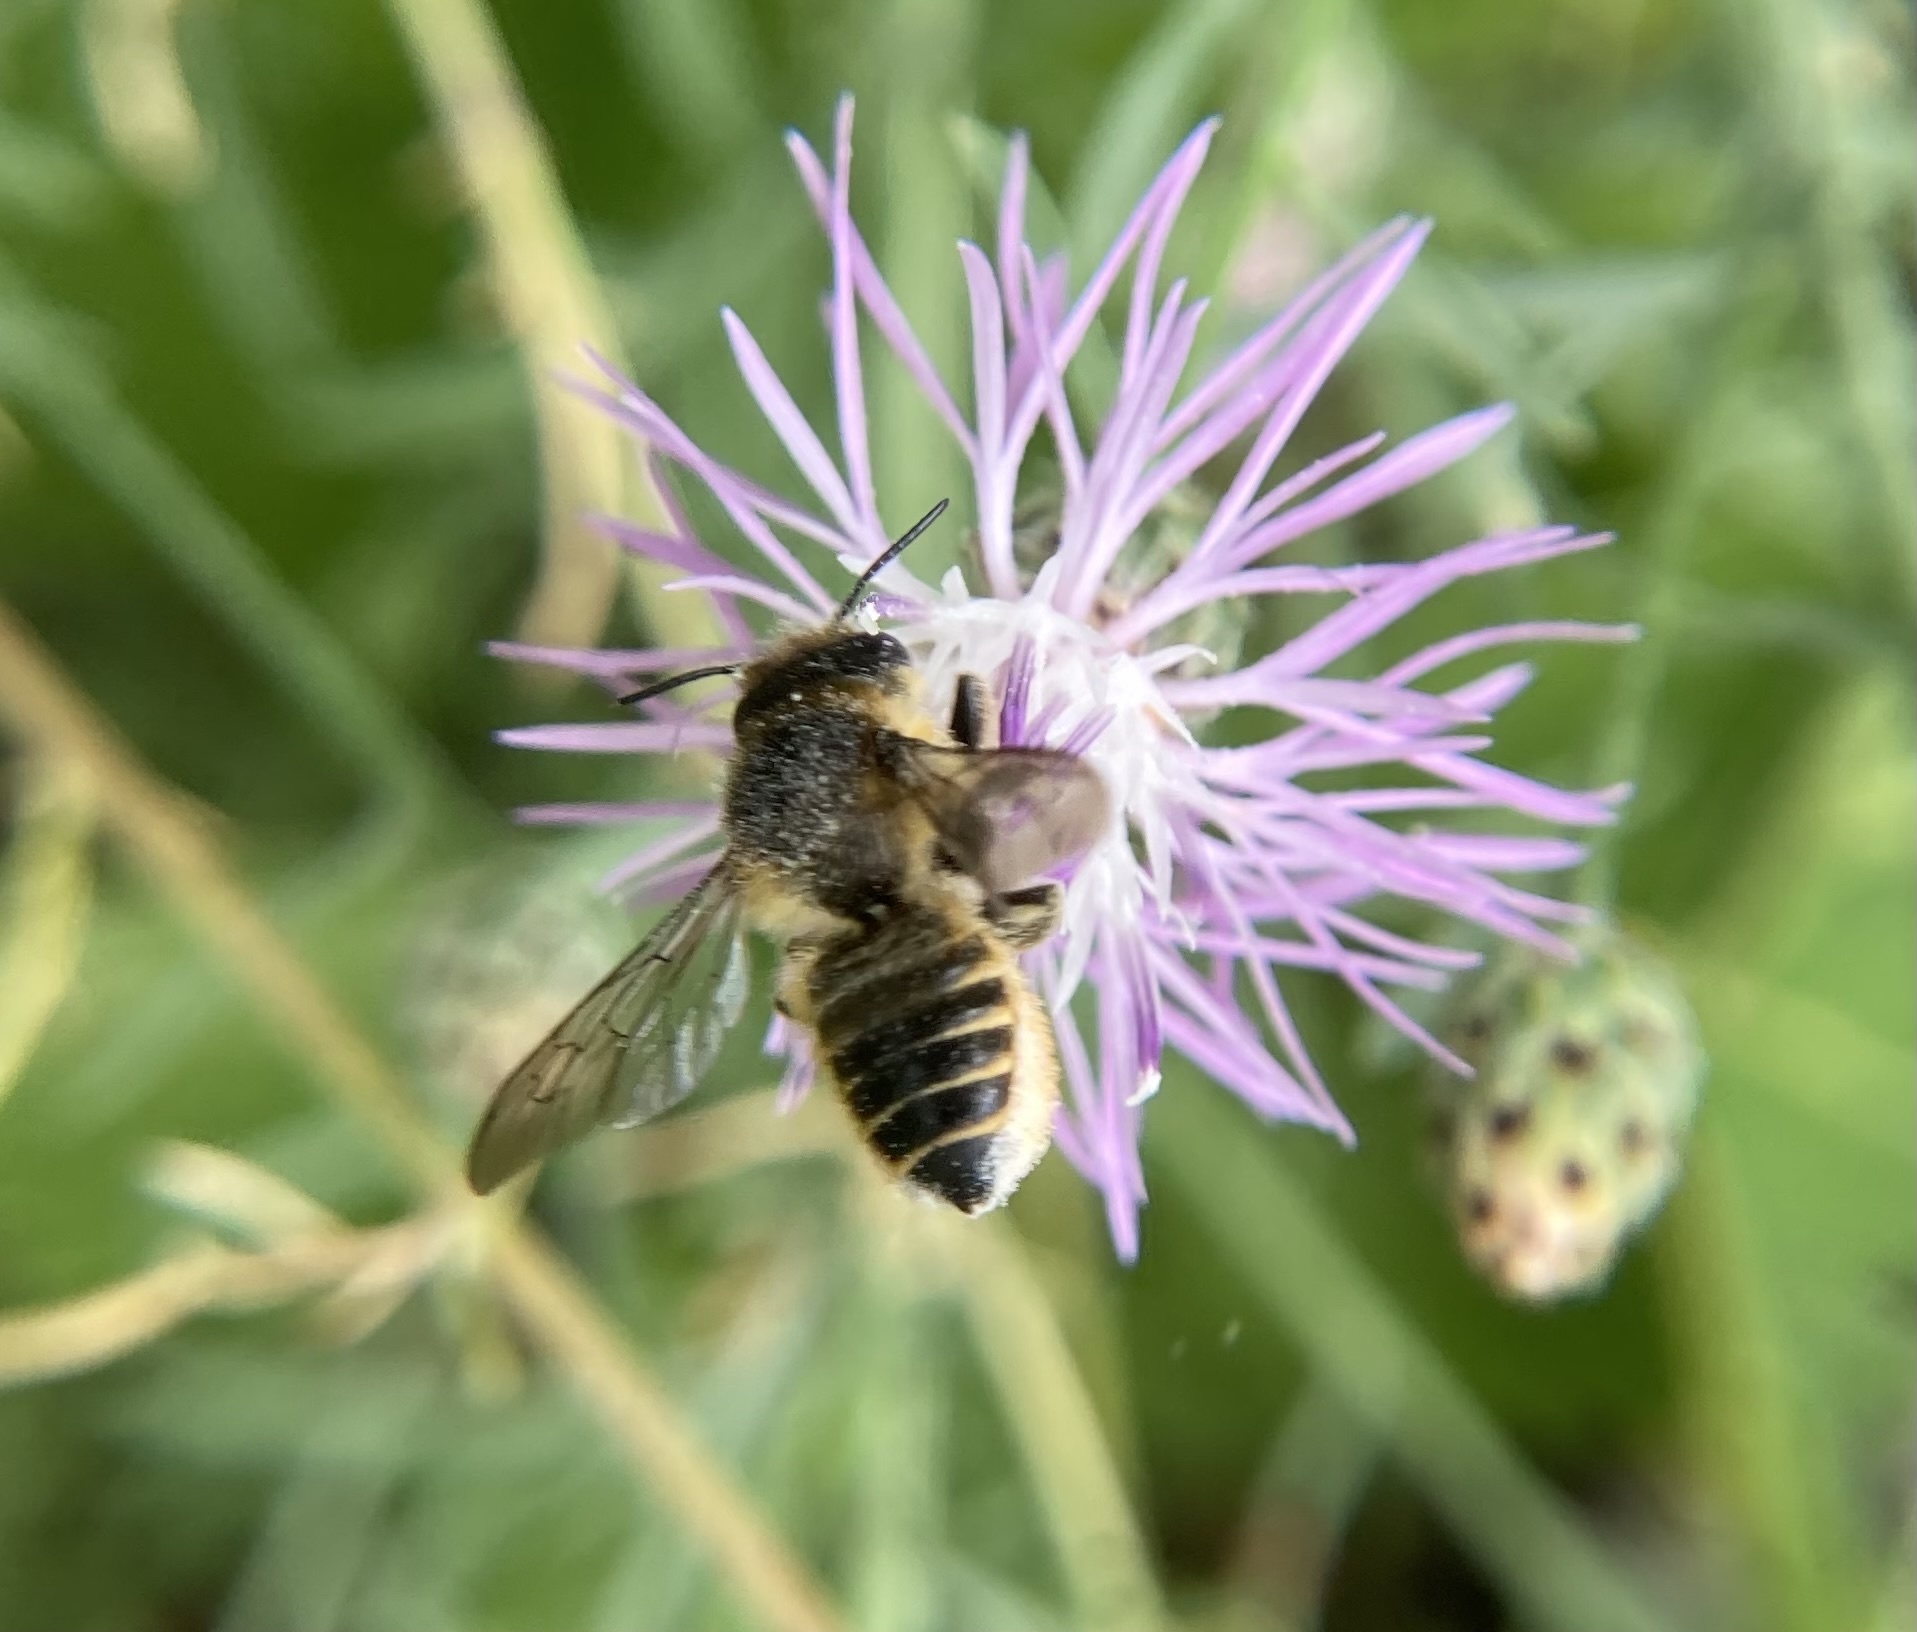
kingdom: Animalia
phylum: Arthropoda
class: Insecta
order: Hymenoptera
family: Megachilidae
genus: Megachile
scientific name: Megachile
